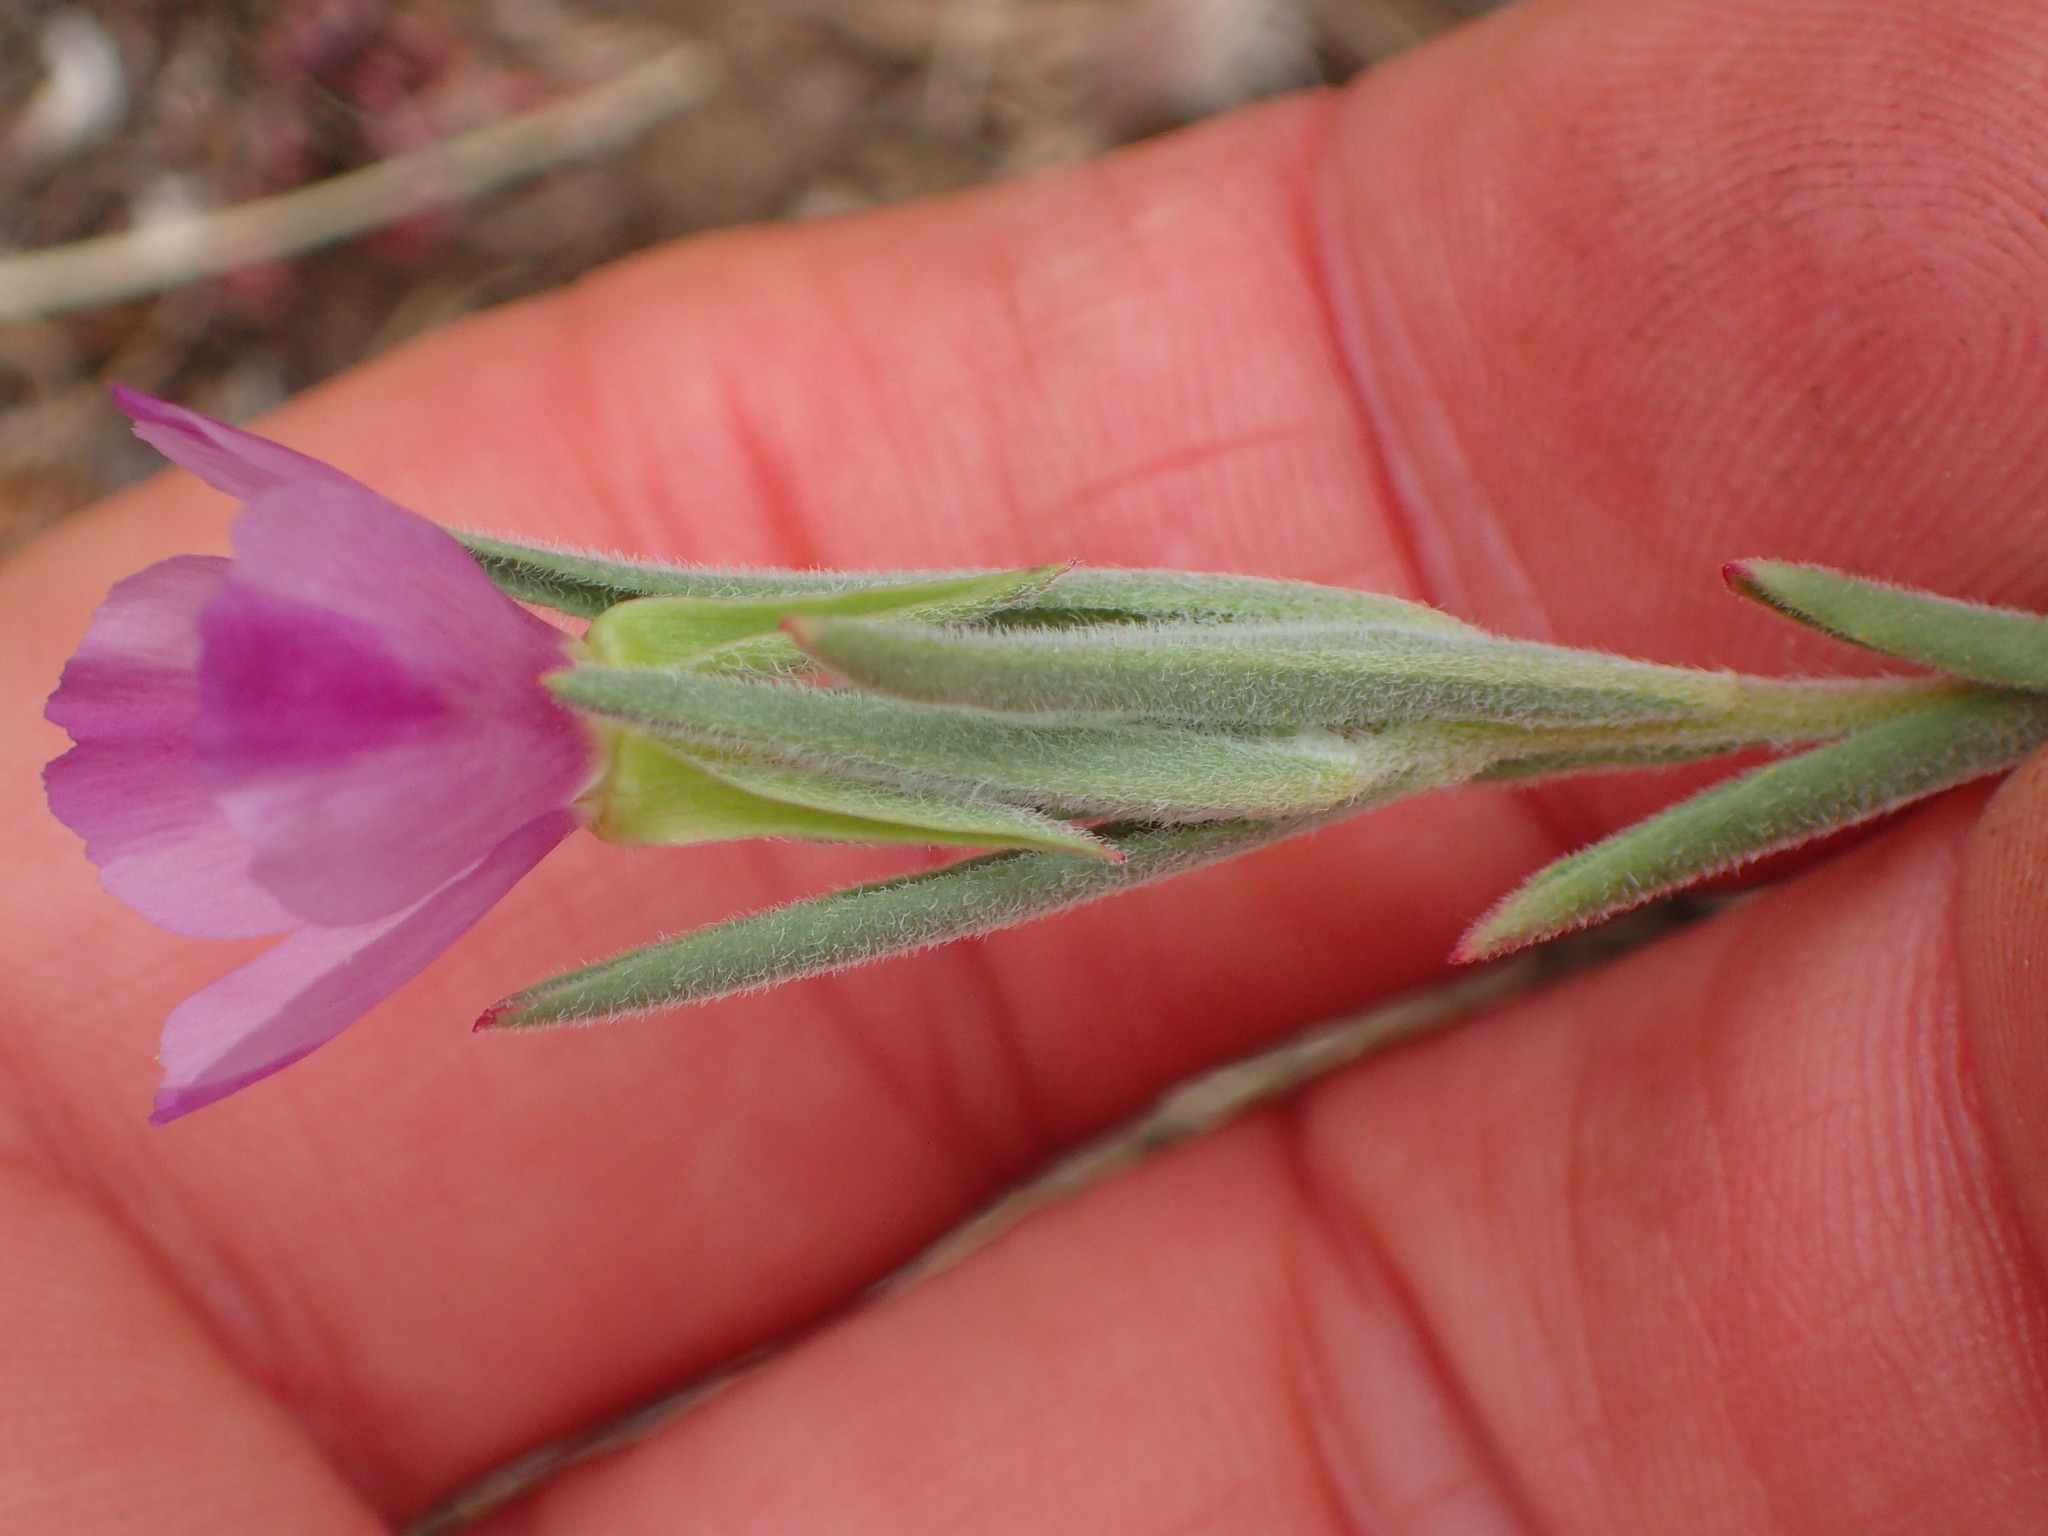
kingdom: Plantae
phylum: Tracheophyta
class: Magnoliopsida
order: Myrtales
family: Onagraceae
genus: Clarkia
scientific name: Clarkia purpurea
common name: Purple clarkia
